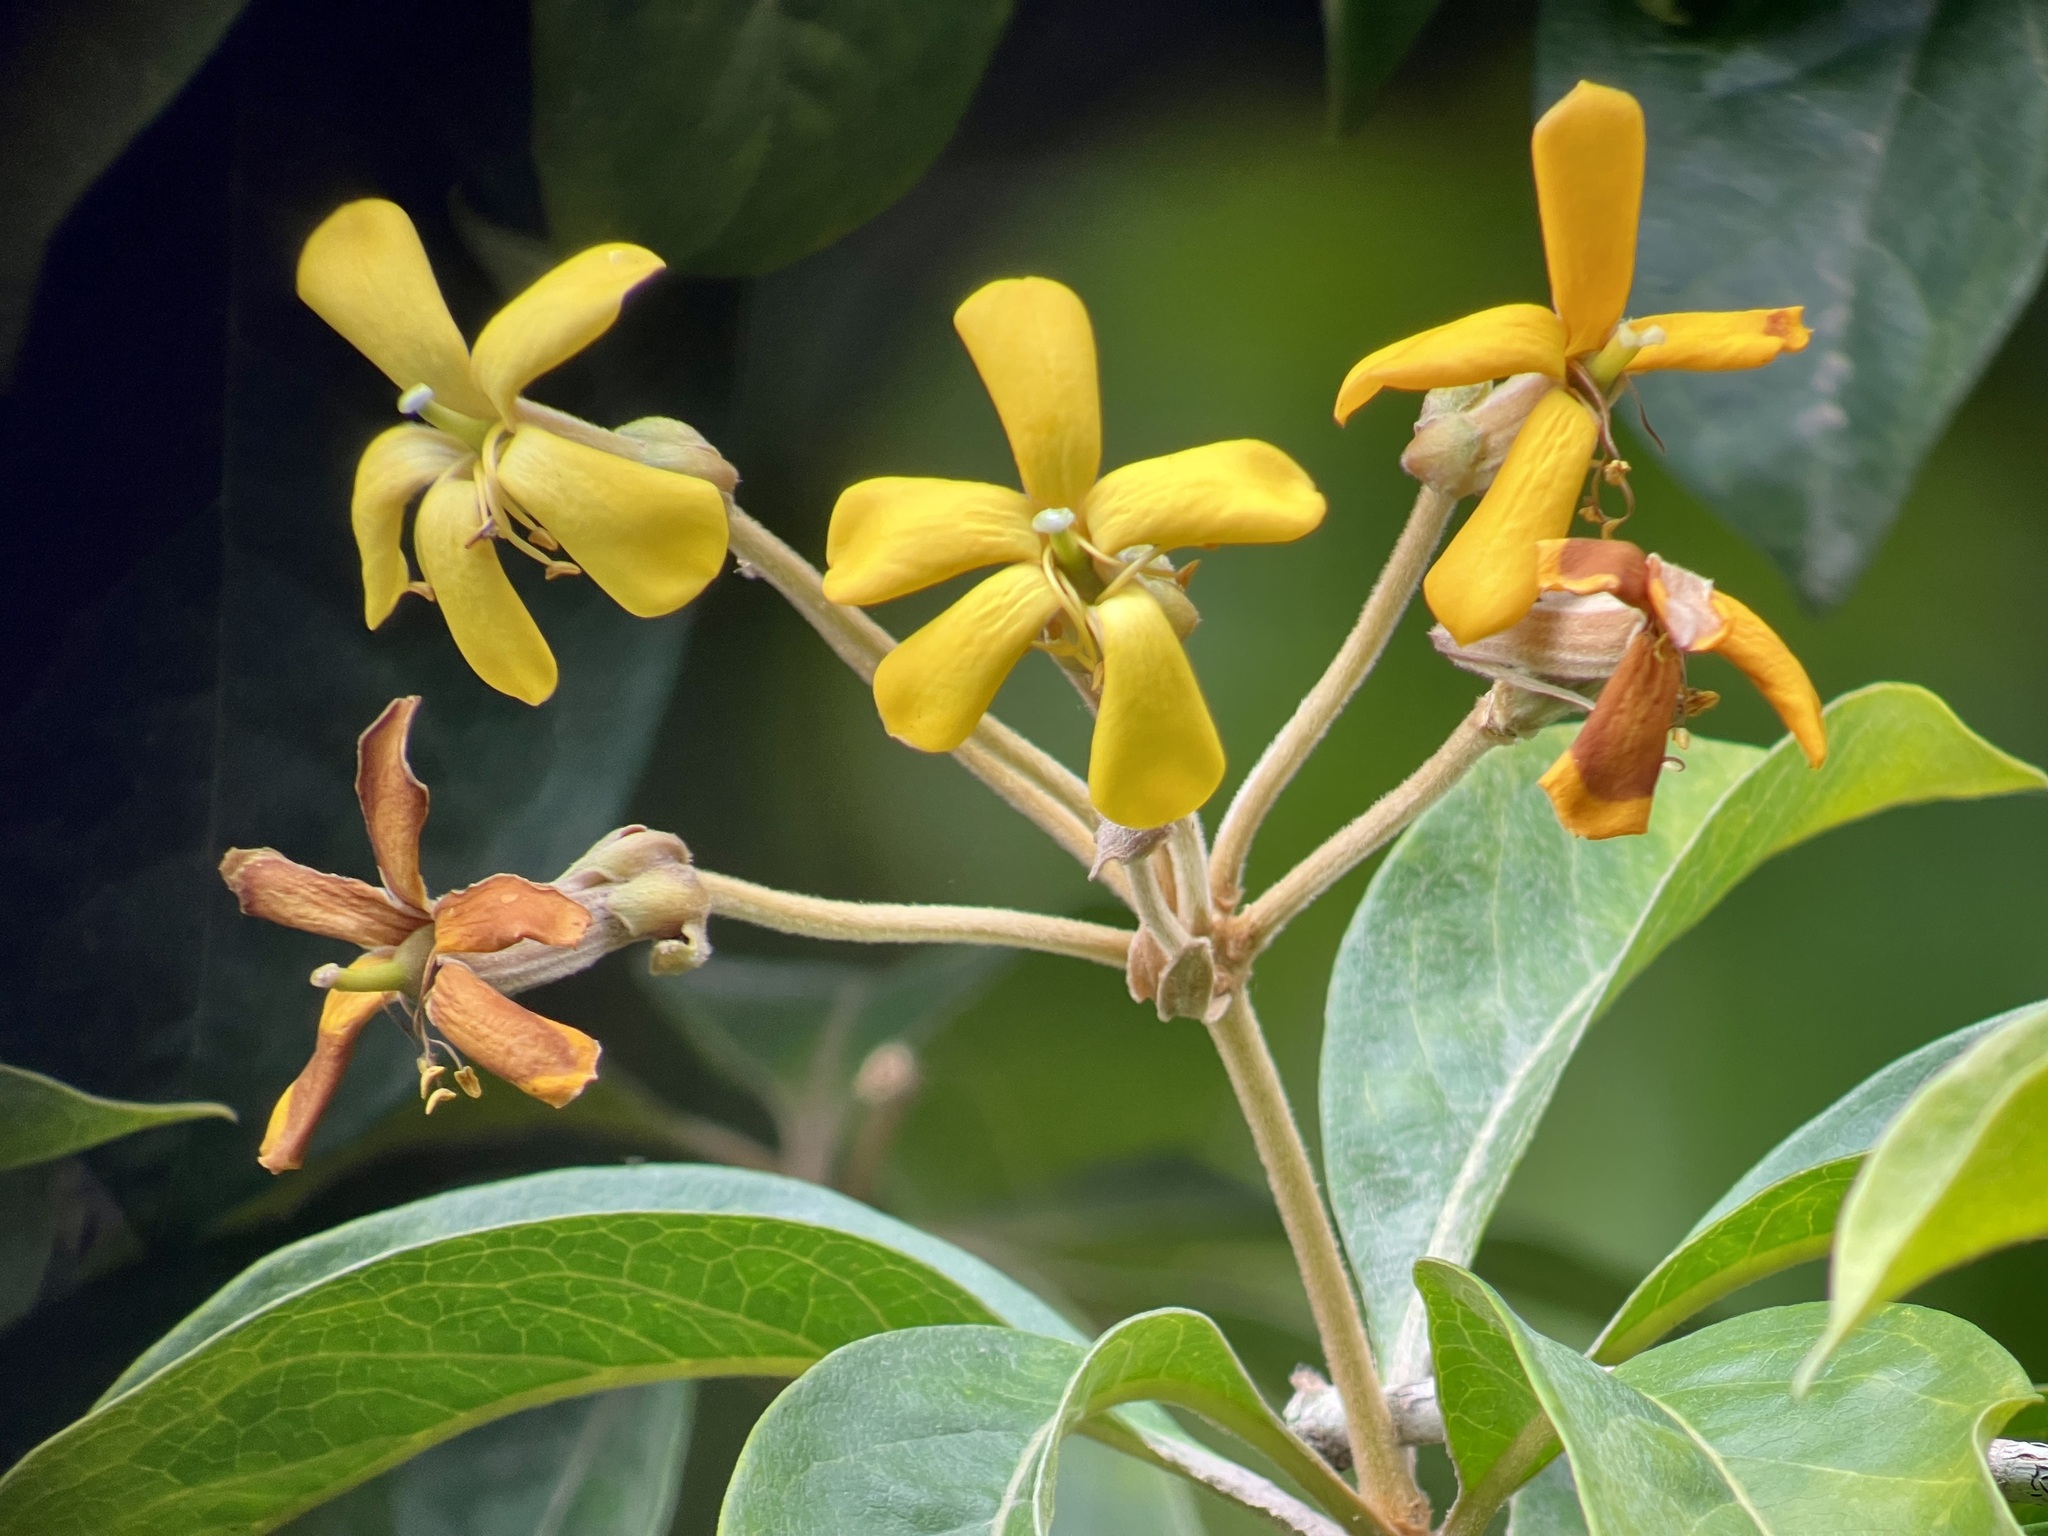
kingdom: Plantae
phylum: Tracheophyta
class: Magnoliopsida
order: Apiales
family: Pittosporaceae
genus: Hymenosporum
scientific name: Hymenosporum flavum
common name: Native frangipani
